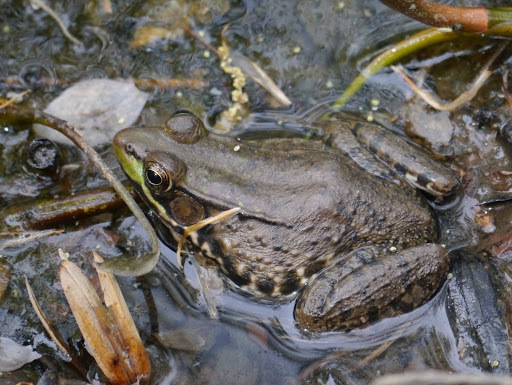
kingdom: Animalia
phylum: Chordata
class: Amphibia
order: Anura
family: Ranidae
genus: Lithobates
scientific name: Lithobates clamitans
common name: Green frog
